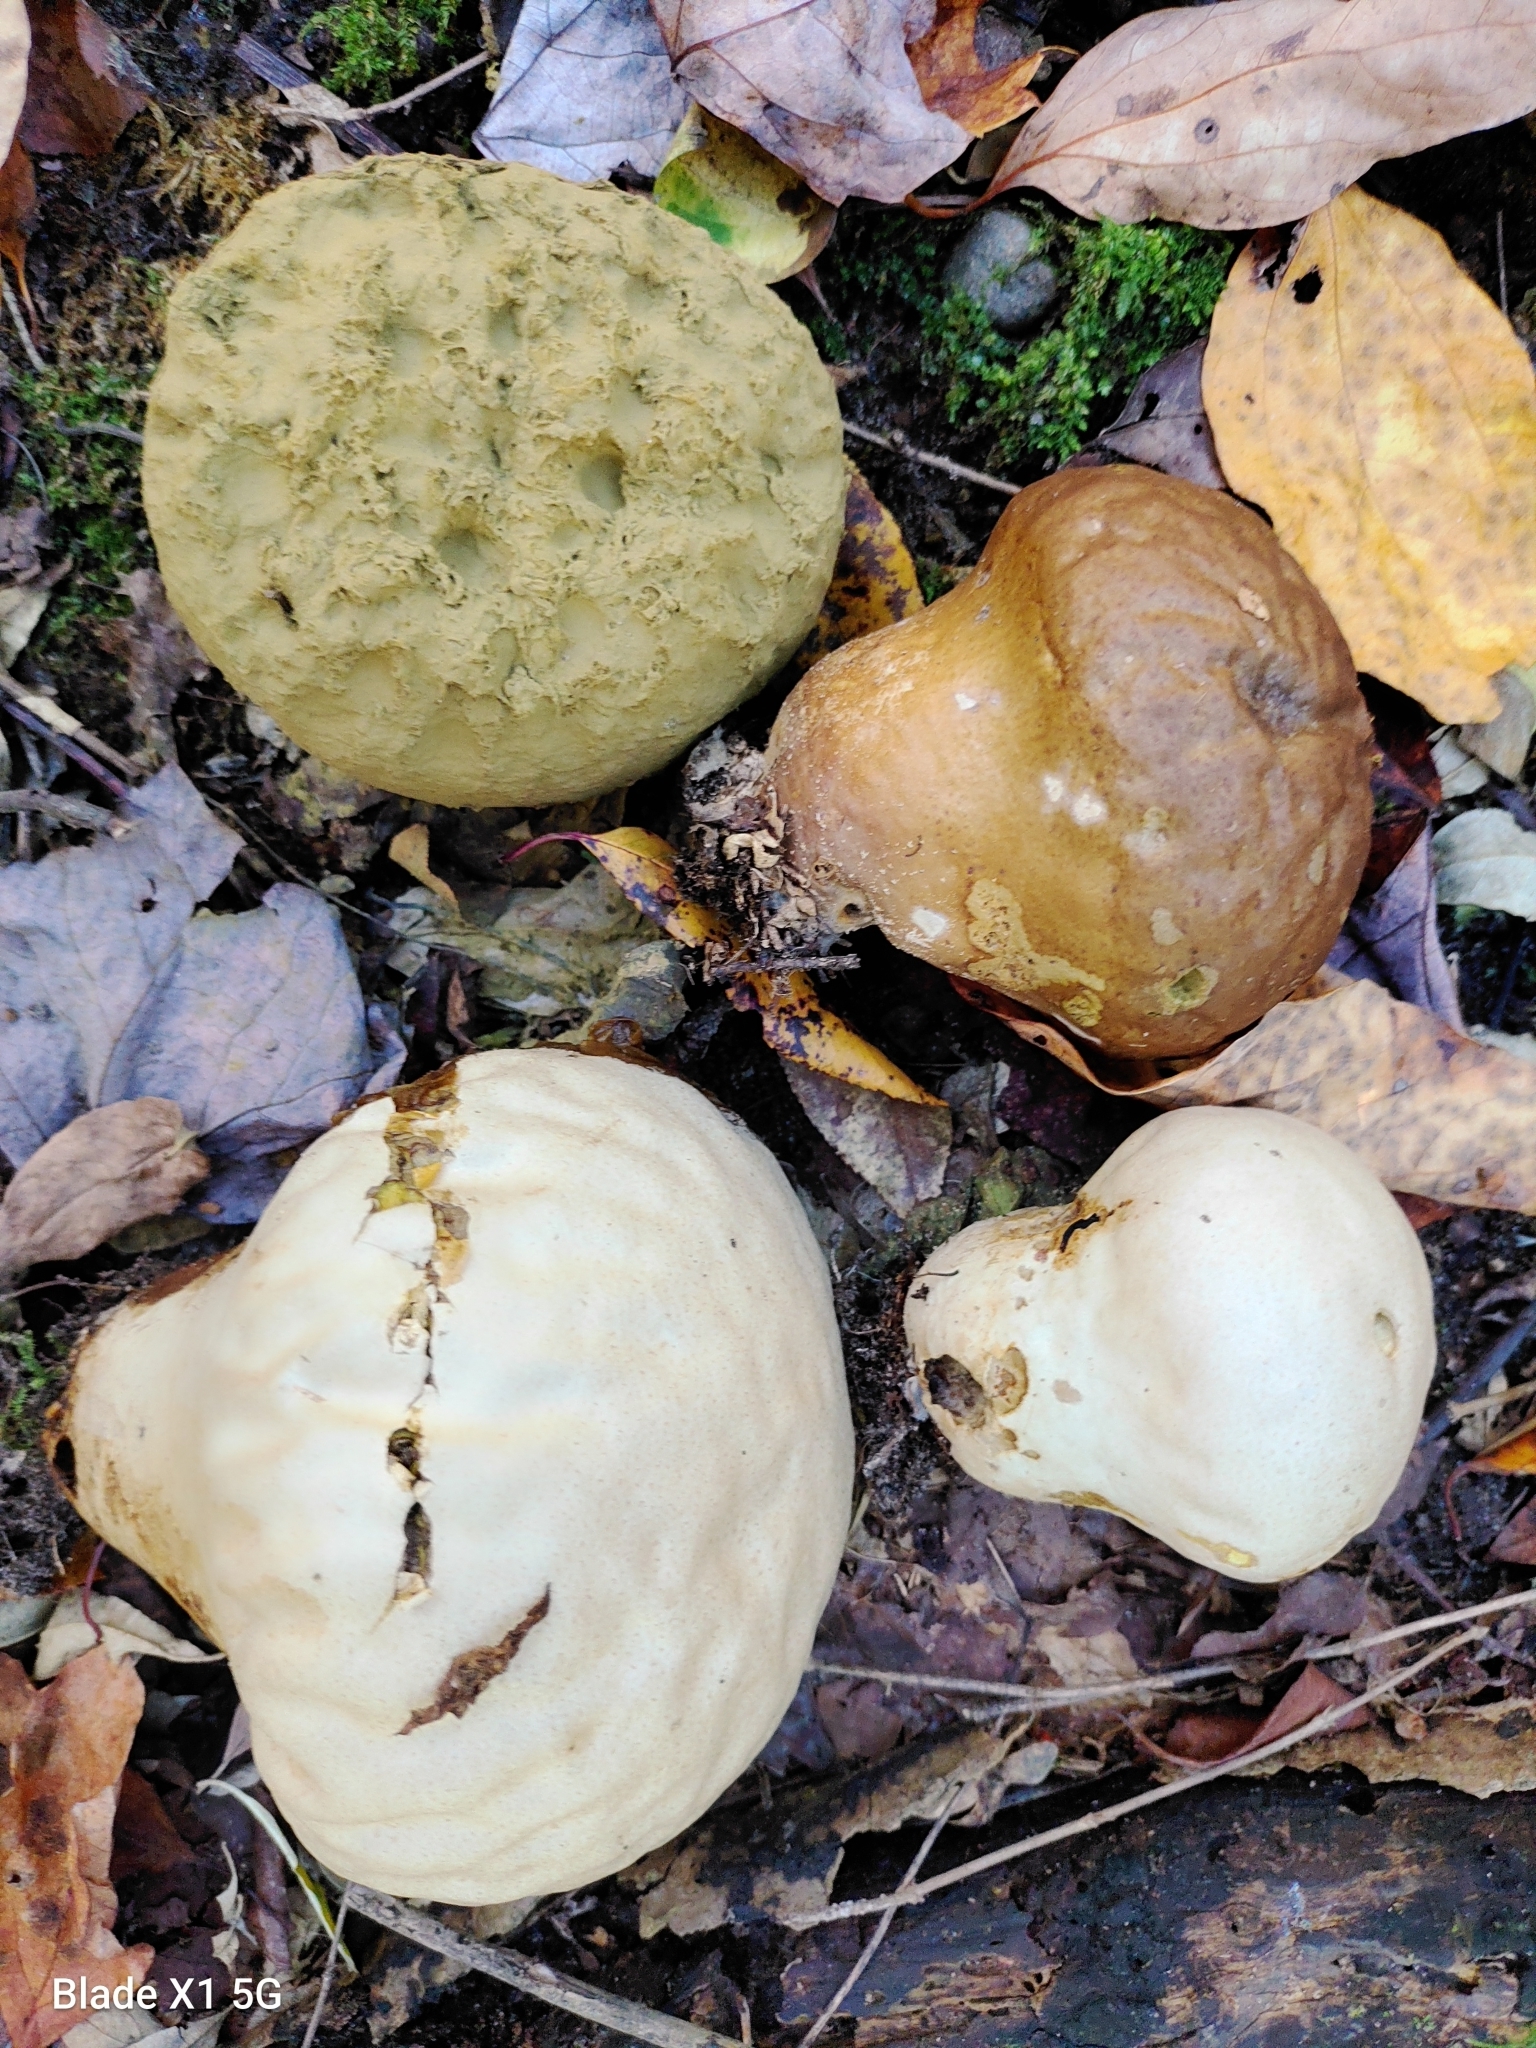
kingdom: Fungi
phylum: Basidiomycota
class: Agaricomycetes
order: Agaricales
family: Lycoperdaceae
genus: Calvatia
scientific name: Calvatia craniiformis
